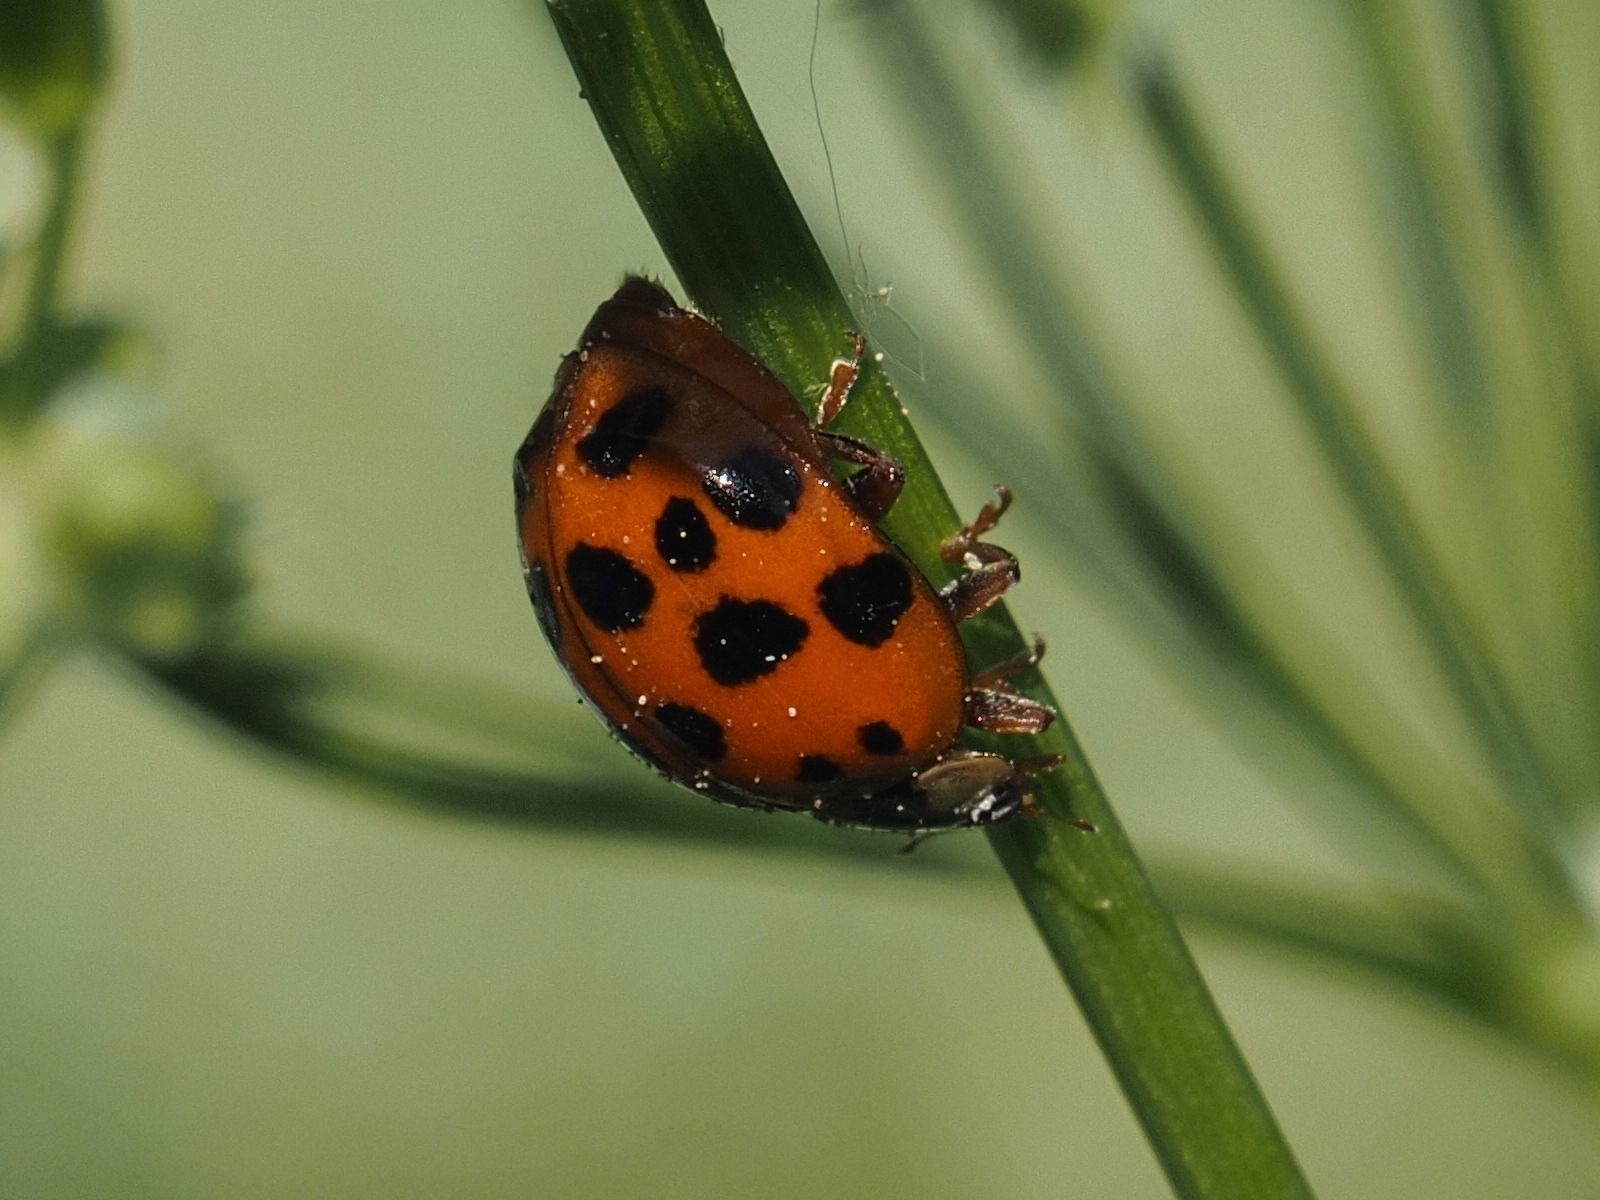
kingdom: Animalia
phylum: Arthropoda
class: Insecta
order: Coleoptera
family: Coccinellidae
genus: Harmonia
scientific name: Harmonia axyridis
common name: Harlequin ladybird
